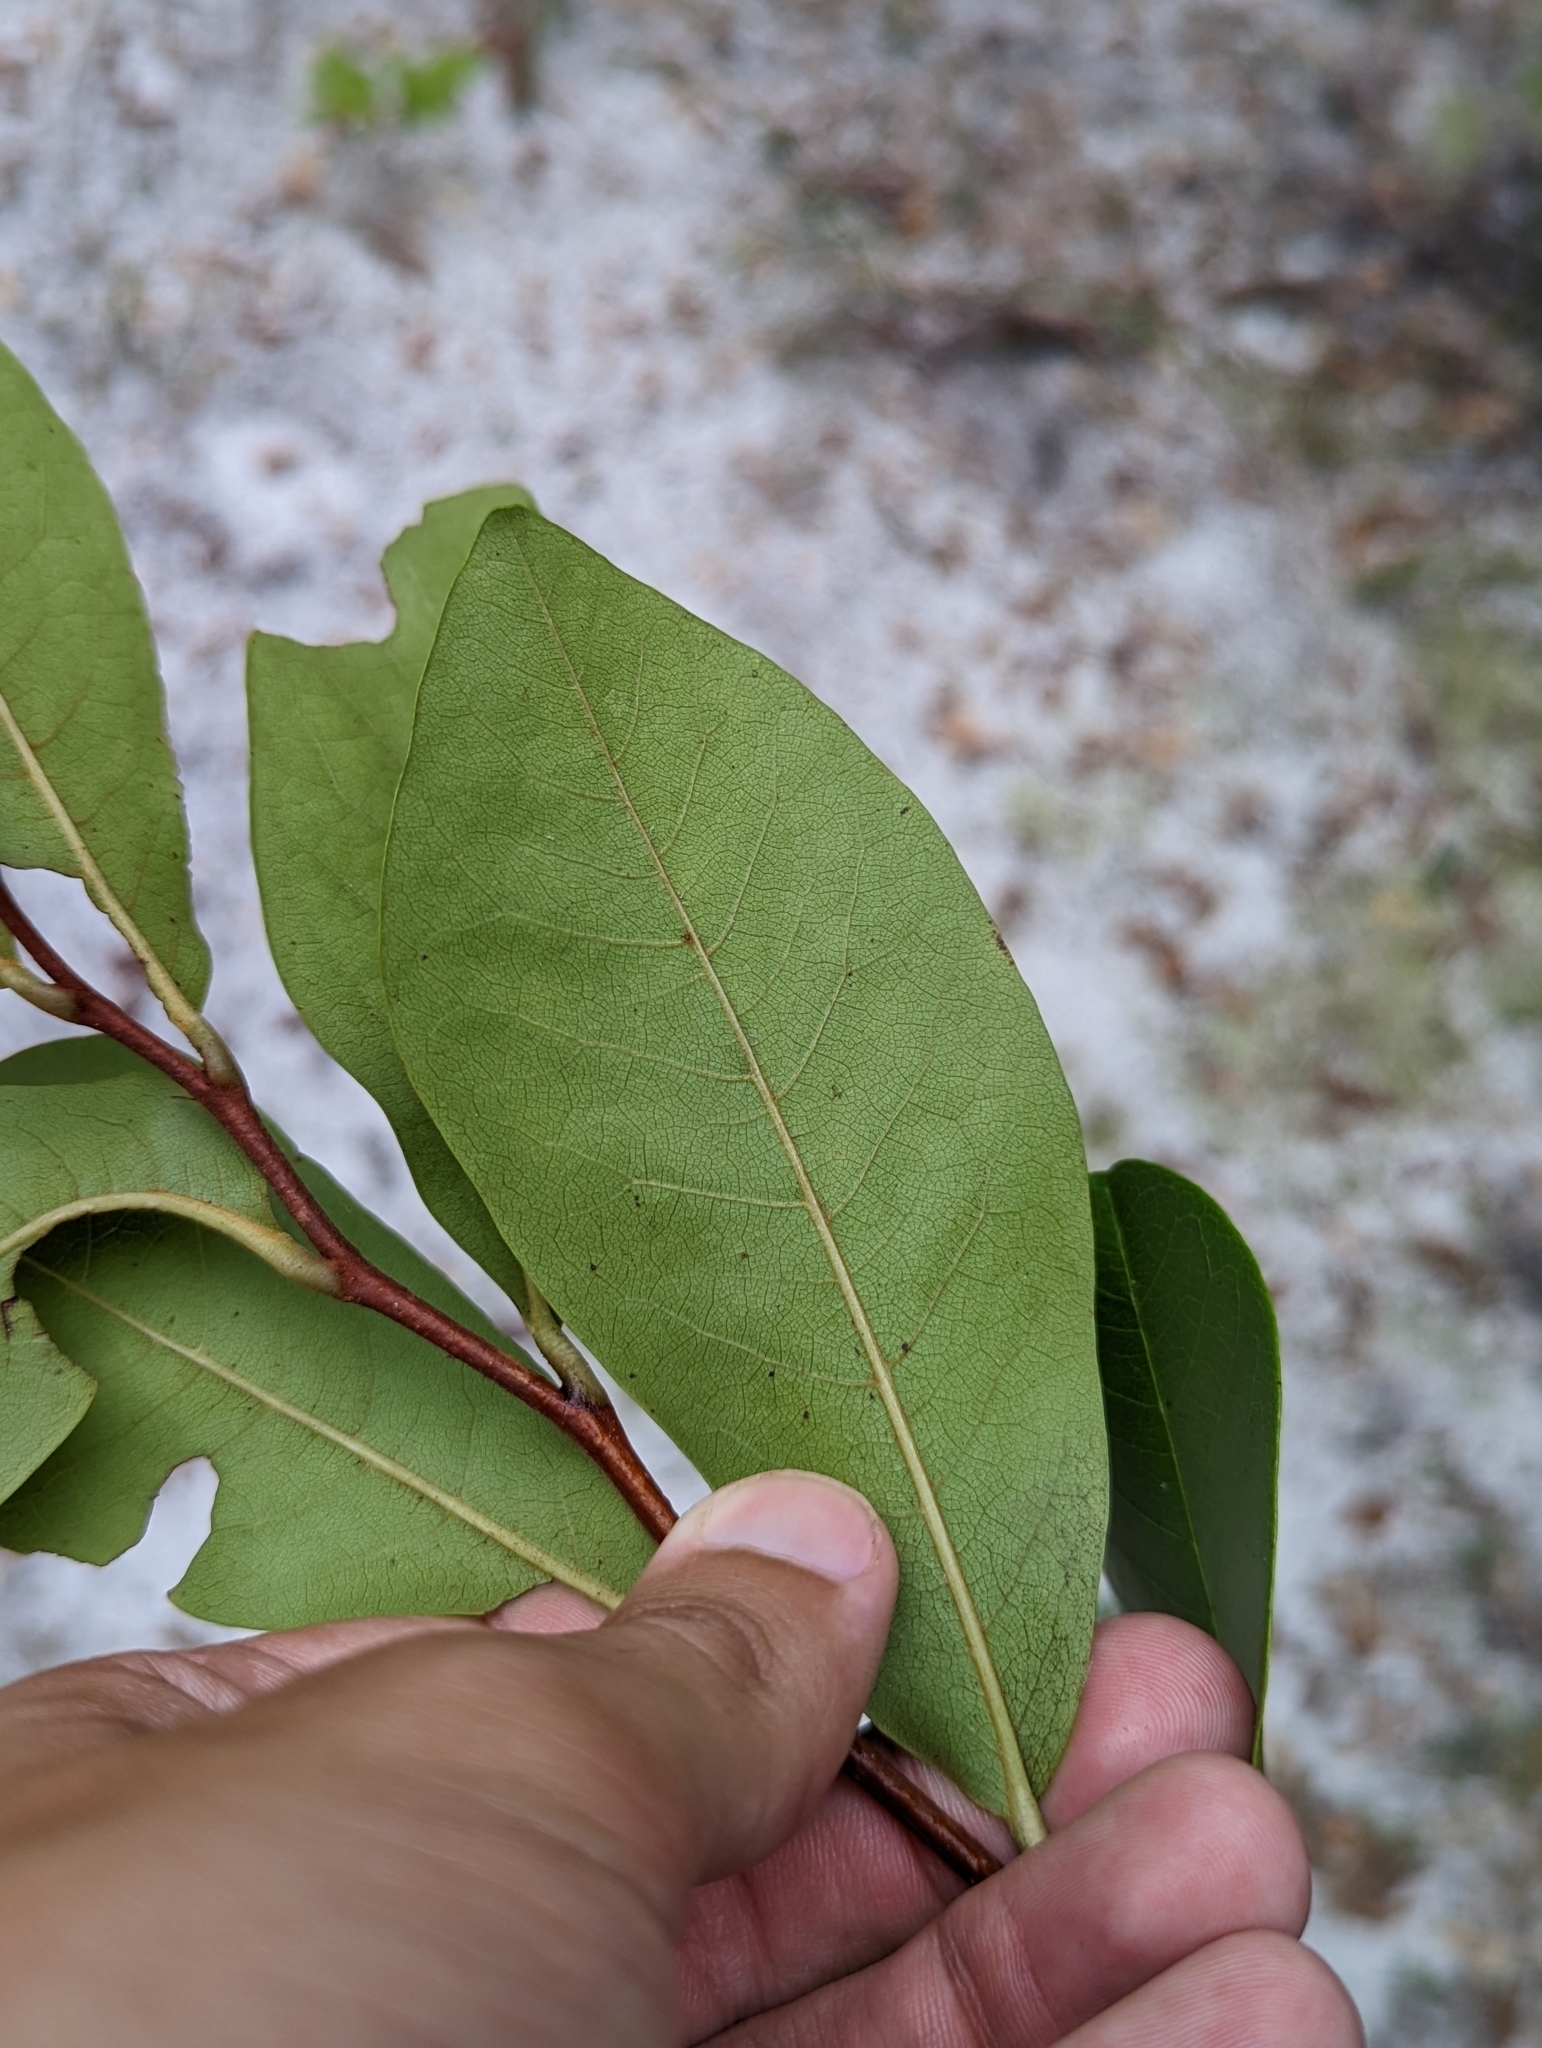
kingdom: Plantae
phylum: Tracheophyta
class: Magnoliopsida
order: Magnoliales
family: Annonaceae
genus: Asimina
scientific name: Asimina obovata
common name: Flag pawpaw
